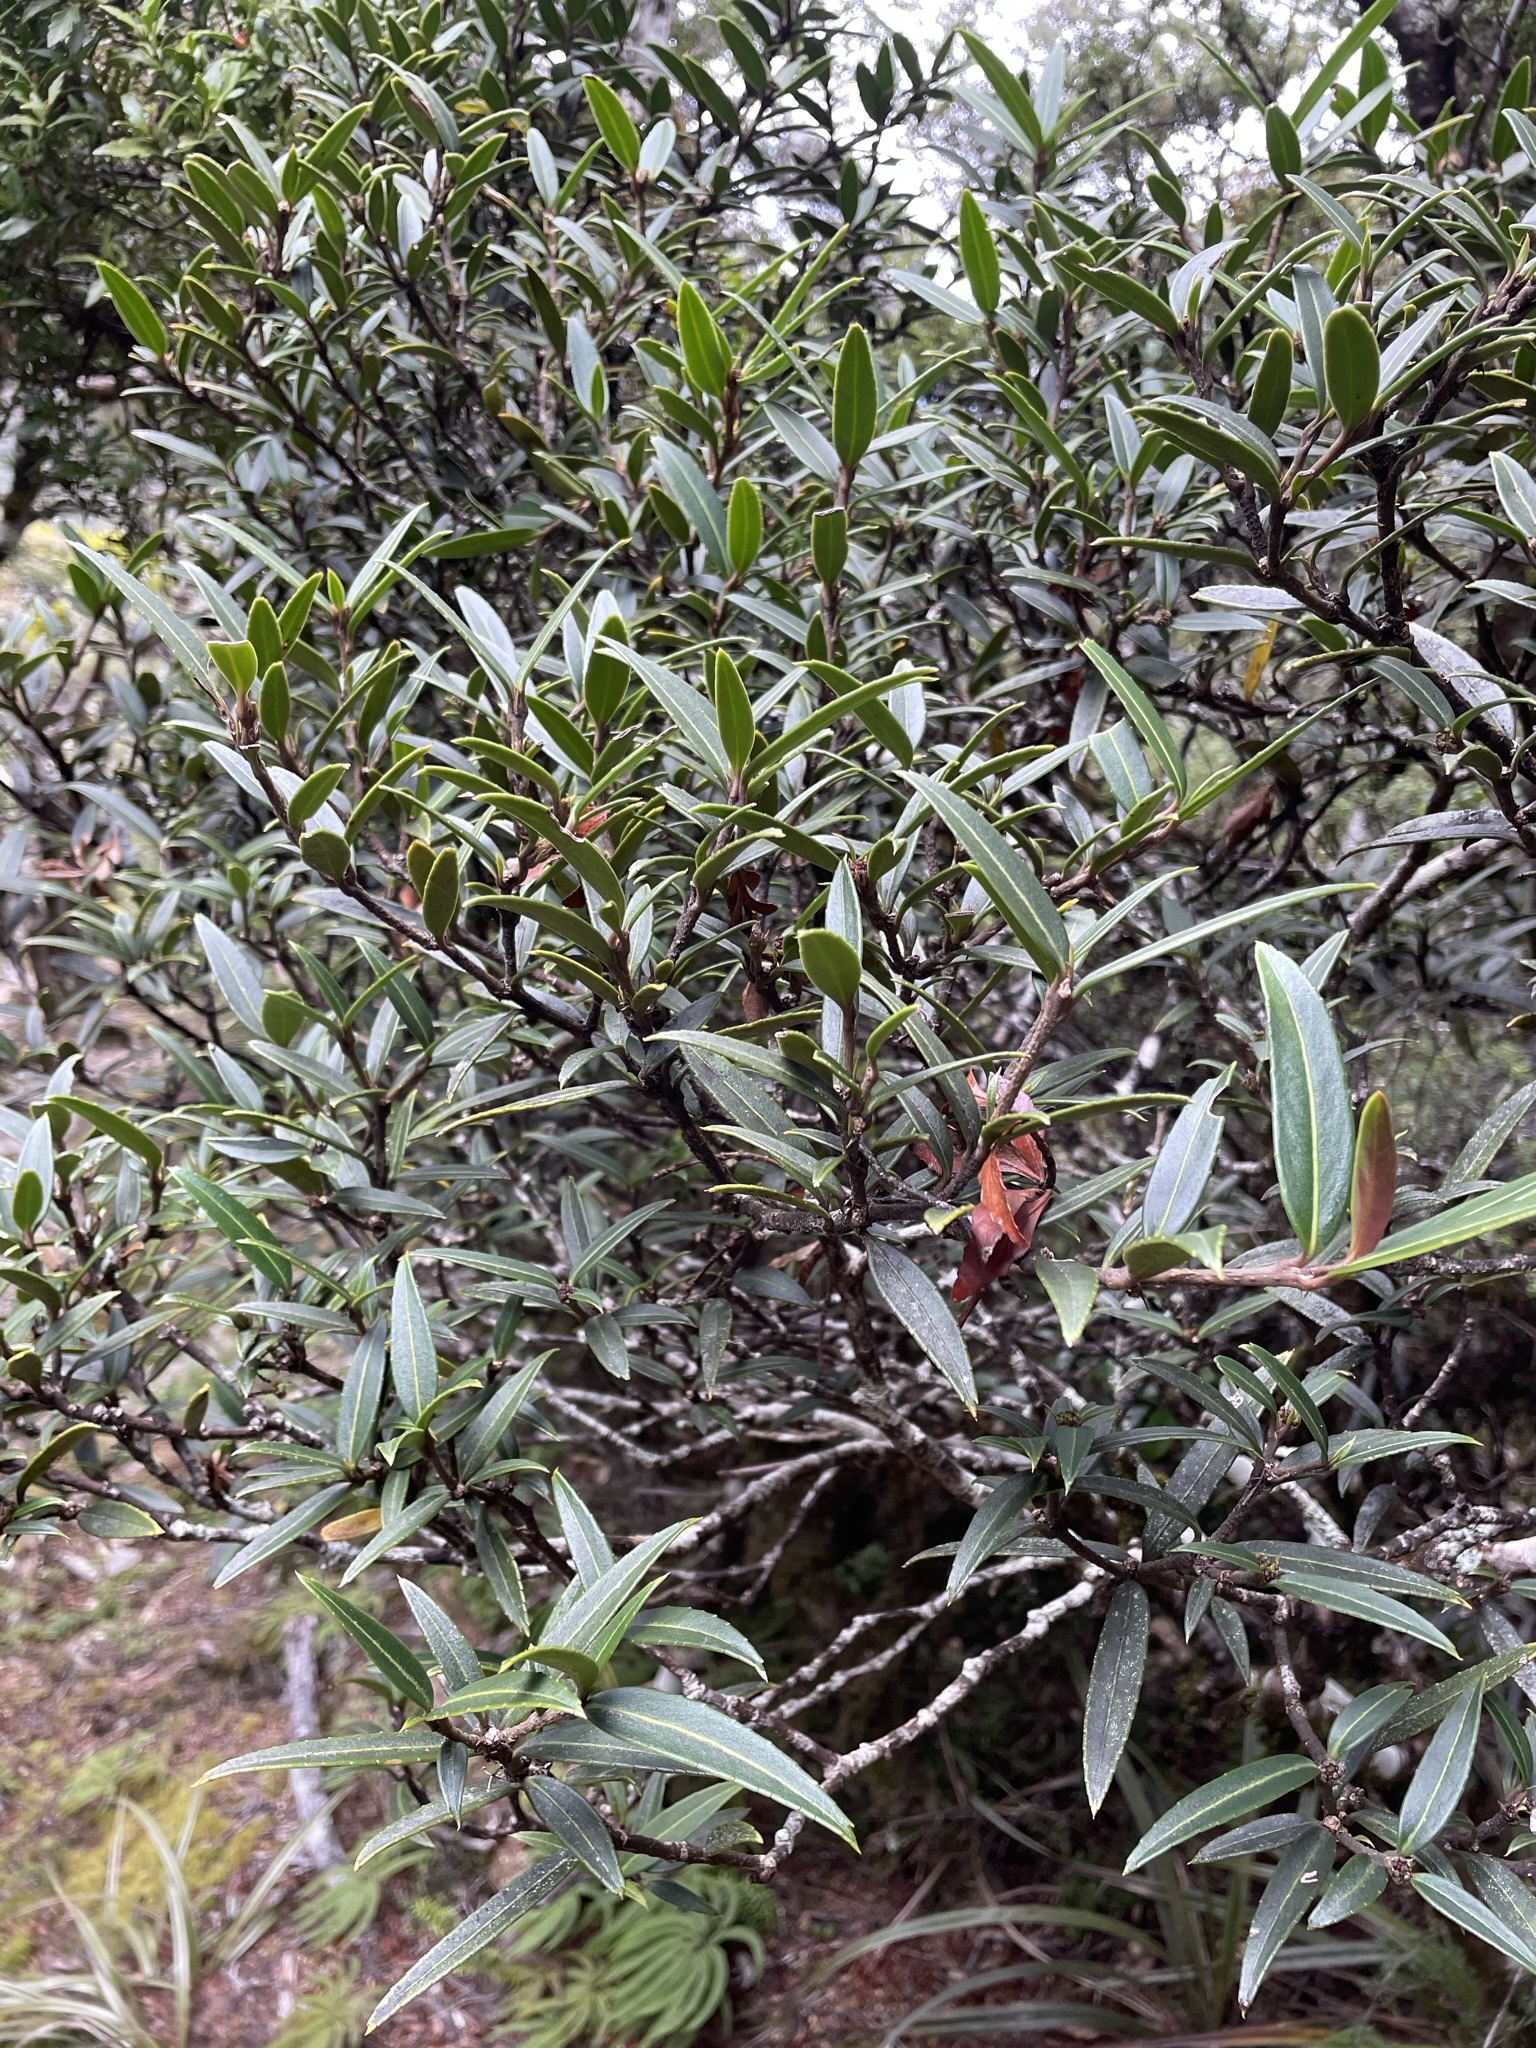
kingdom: Plantae
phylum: Tracheophyta
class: Magnoliopsida
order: Apiales
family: Araliaceae
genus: Pseudopanax
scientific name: Pseudopanax linearis
